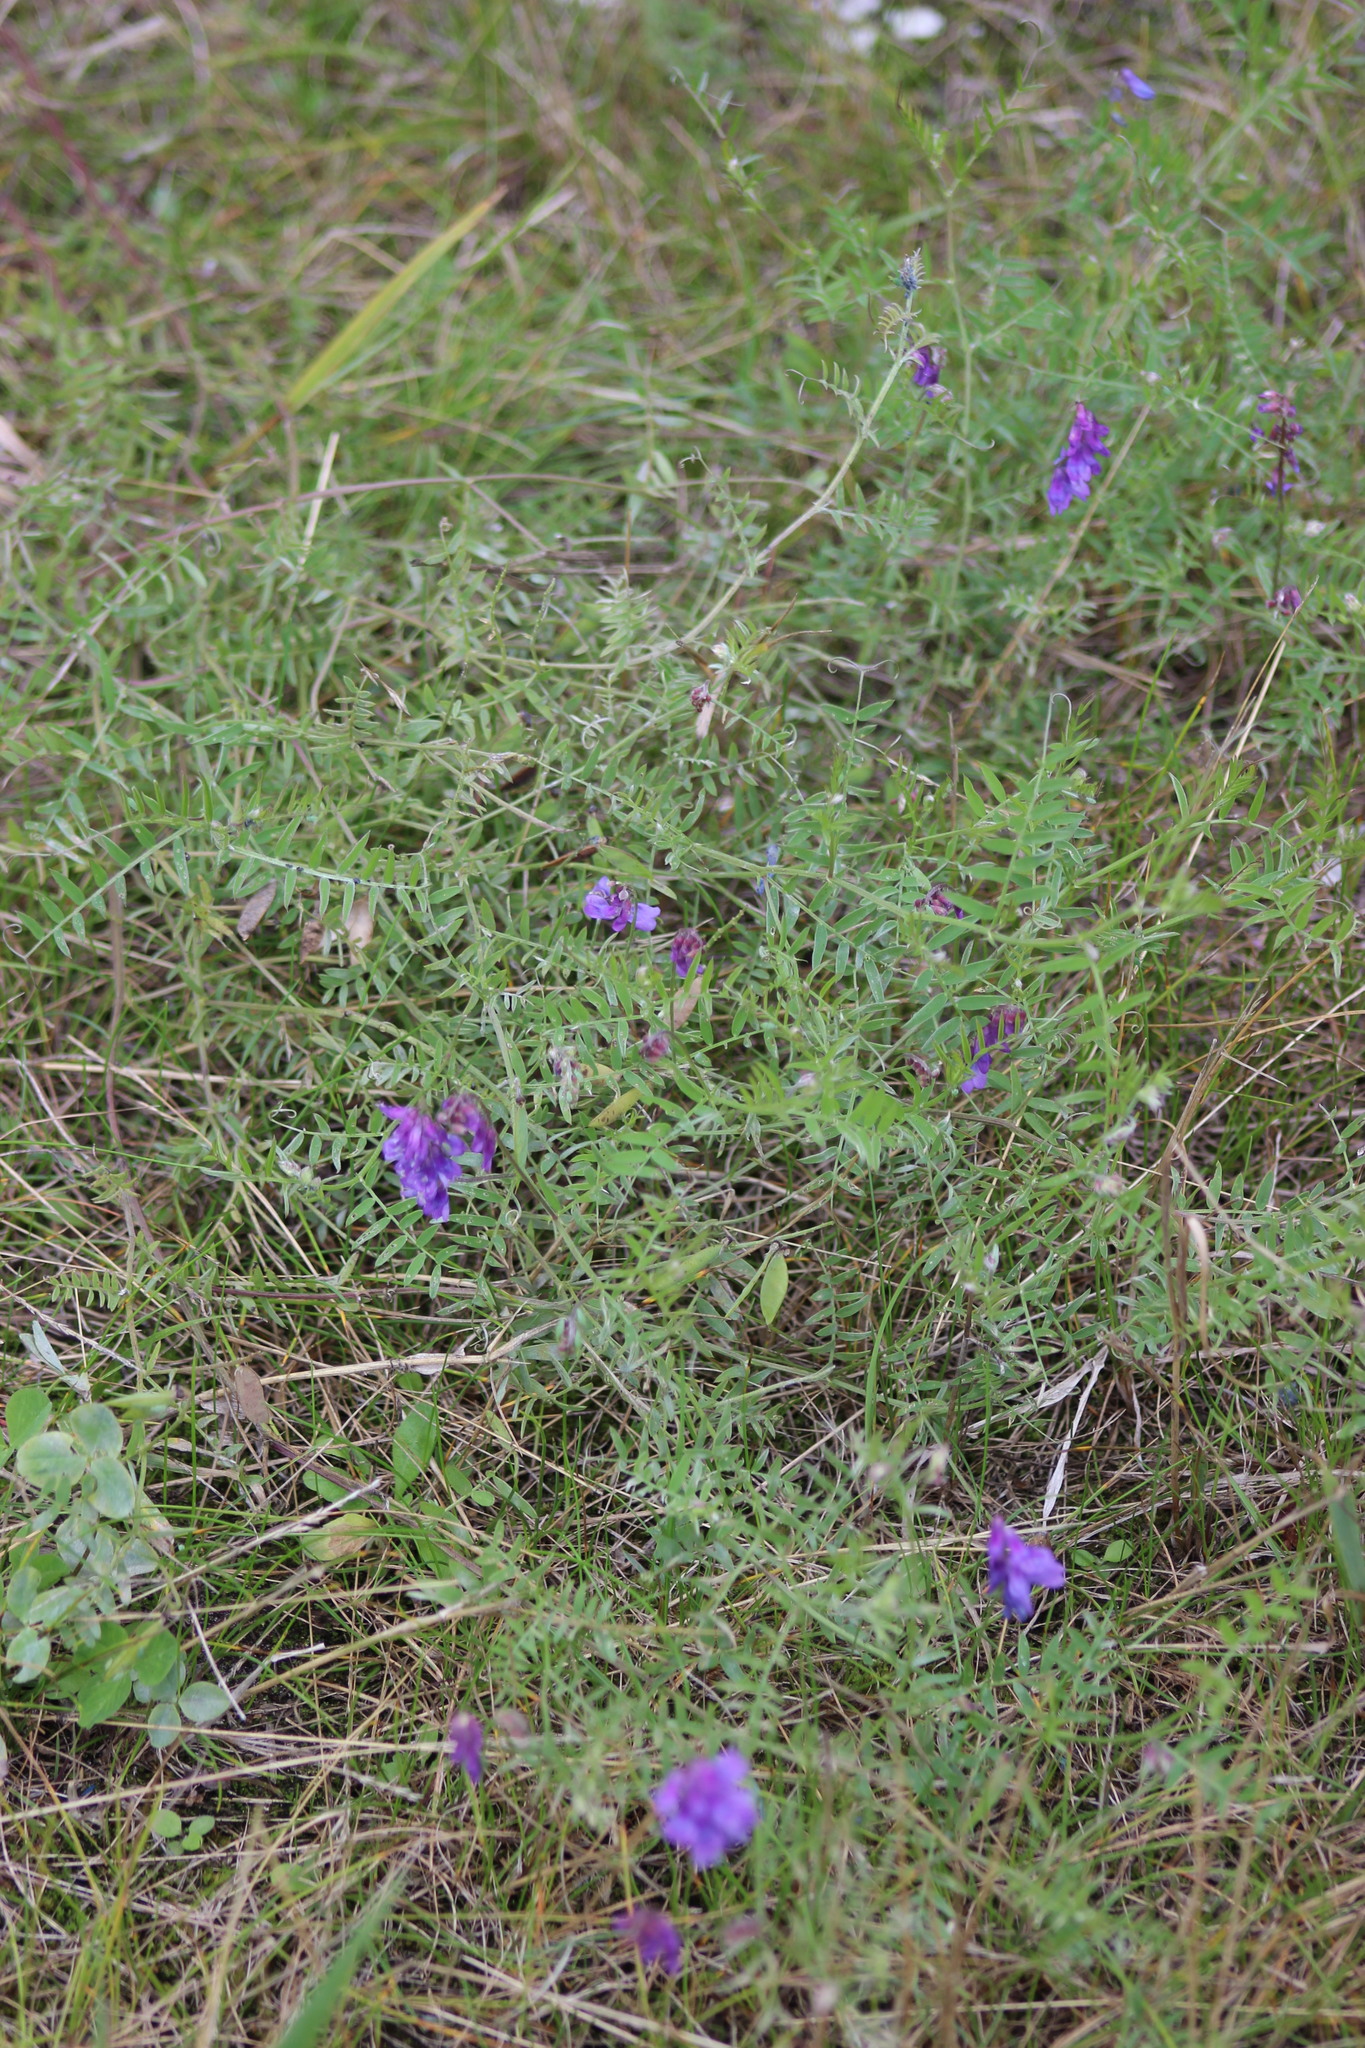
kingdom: Plantae
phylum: Tracheophyta
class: Magnoliopsida
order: Fabales
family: Fabaceae
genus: Vicia
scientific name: Vicia cracca
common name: Bird vetch
